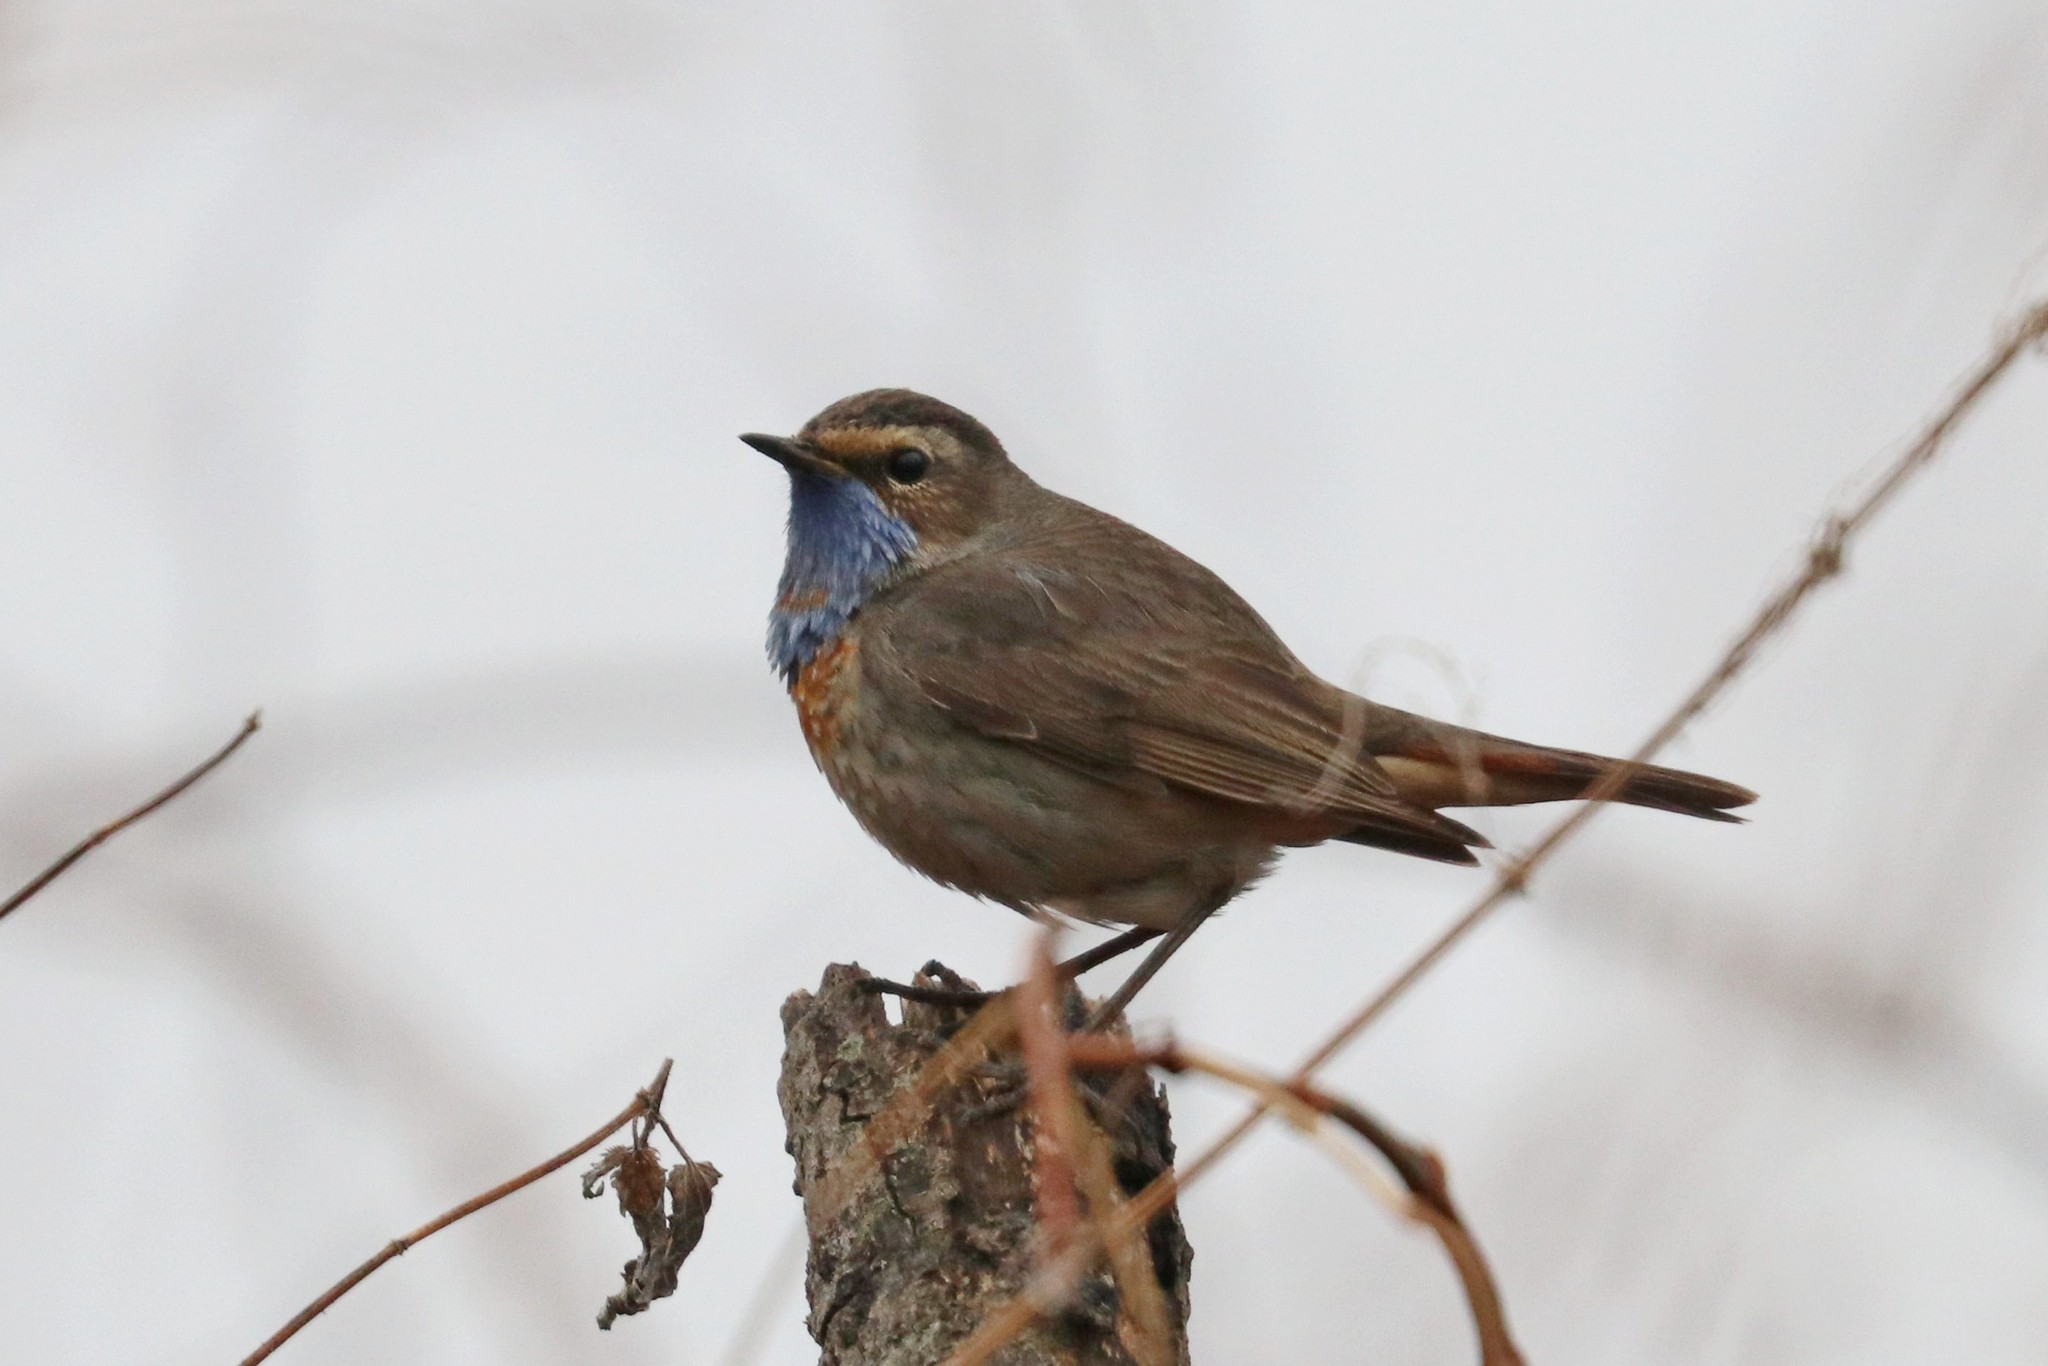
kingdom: Animalia
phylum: Chordata
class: Aves
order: Passeriformes
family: Muscicapidae
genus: Luscinia
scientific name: Luscinia svecica
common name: Bluethroat
